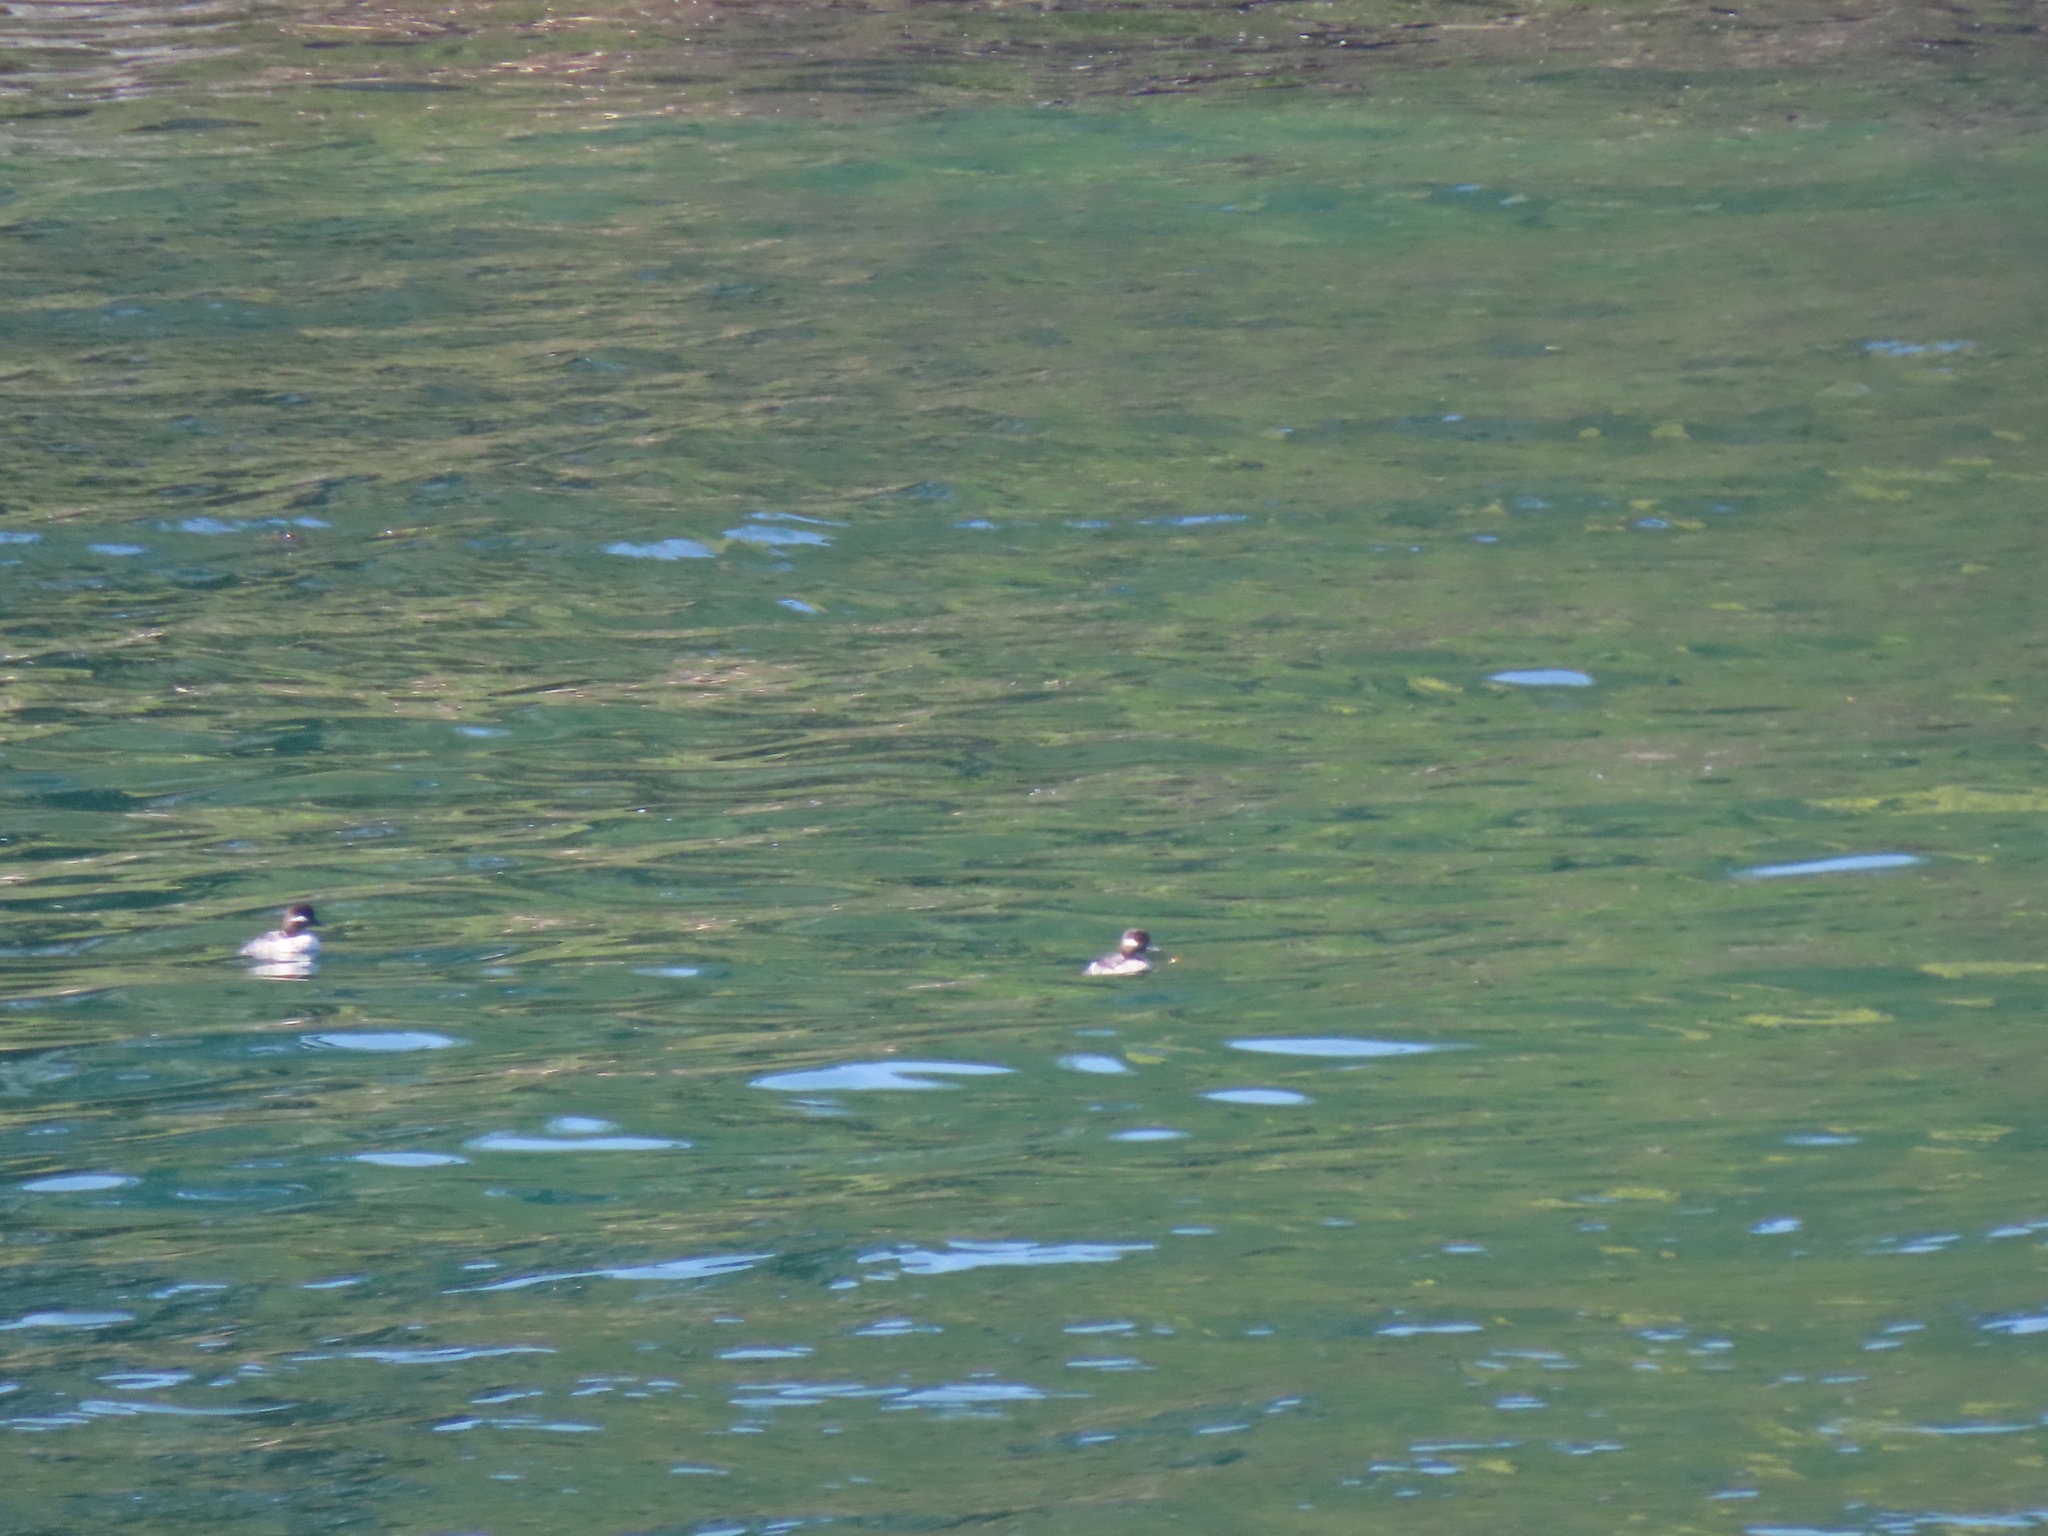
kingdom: Animalia
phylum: Chordata
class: Aves
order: Anseriformes
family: Anatidae
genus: Bucephala
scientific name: Bucephala albeola
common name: Bufflehead
